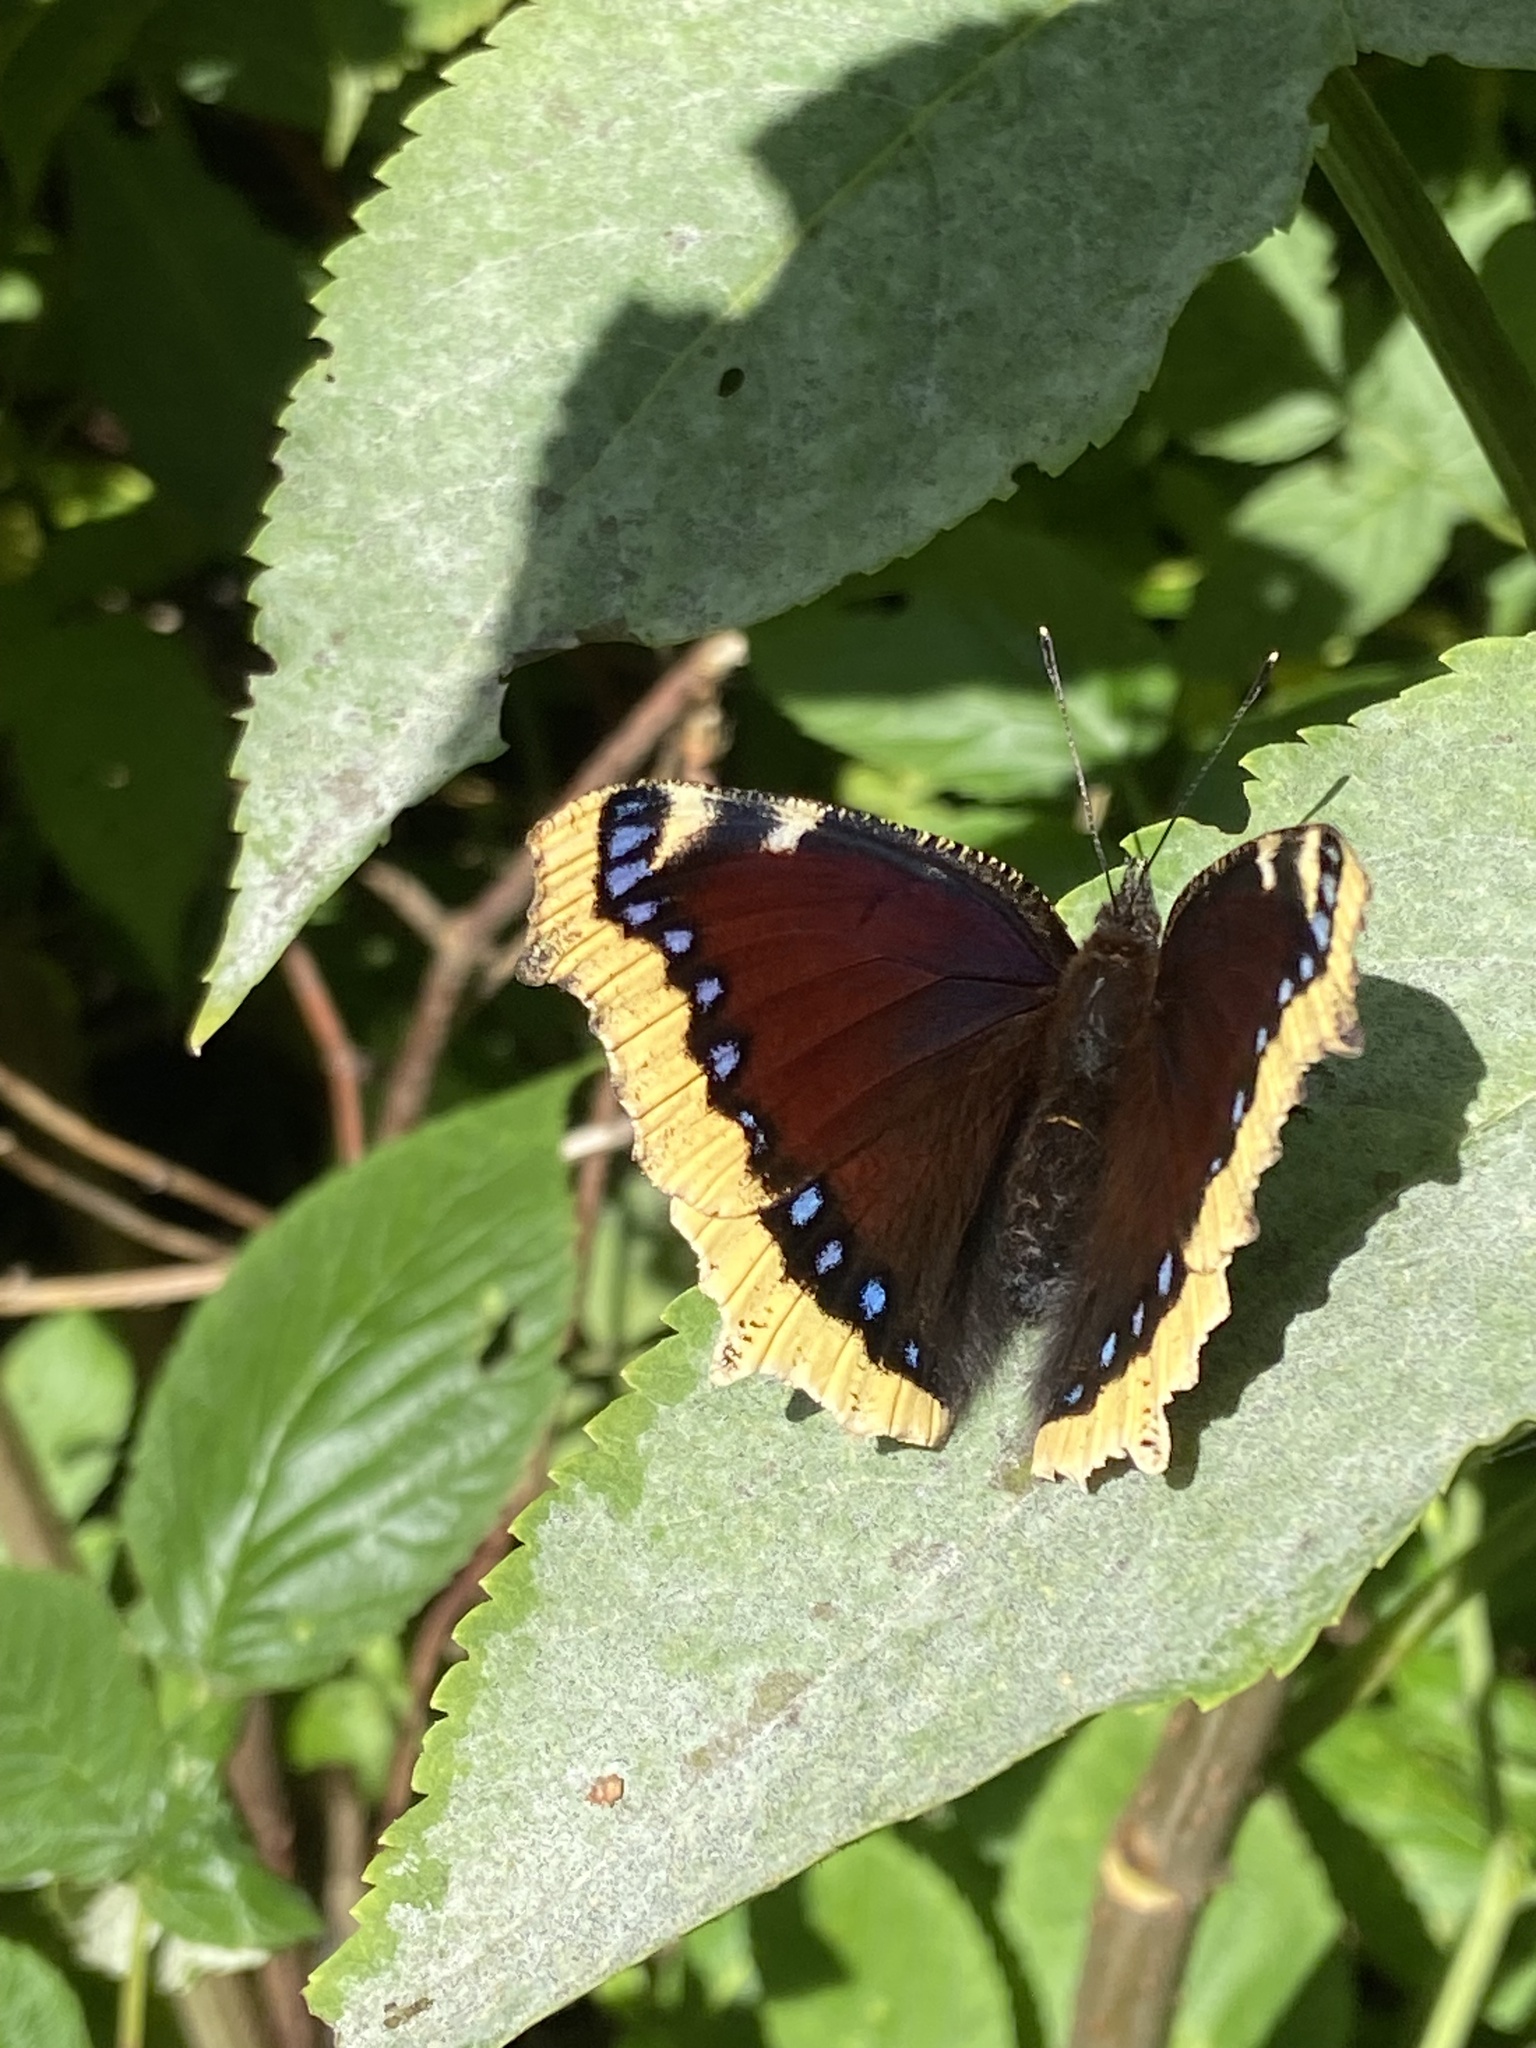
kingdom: Animalia
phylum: Arthropoda
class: Insecta
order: Lepidoptera
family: Nymphalidae
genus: Nymphalis
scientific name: Nymphalis antiopa
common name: Camberwell beauty
